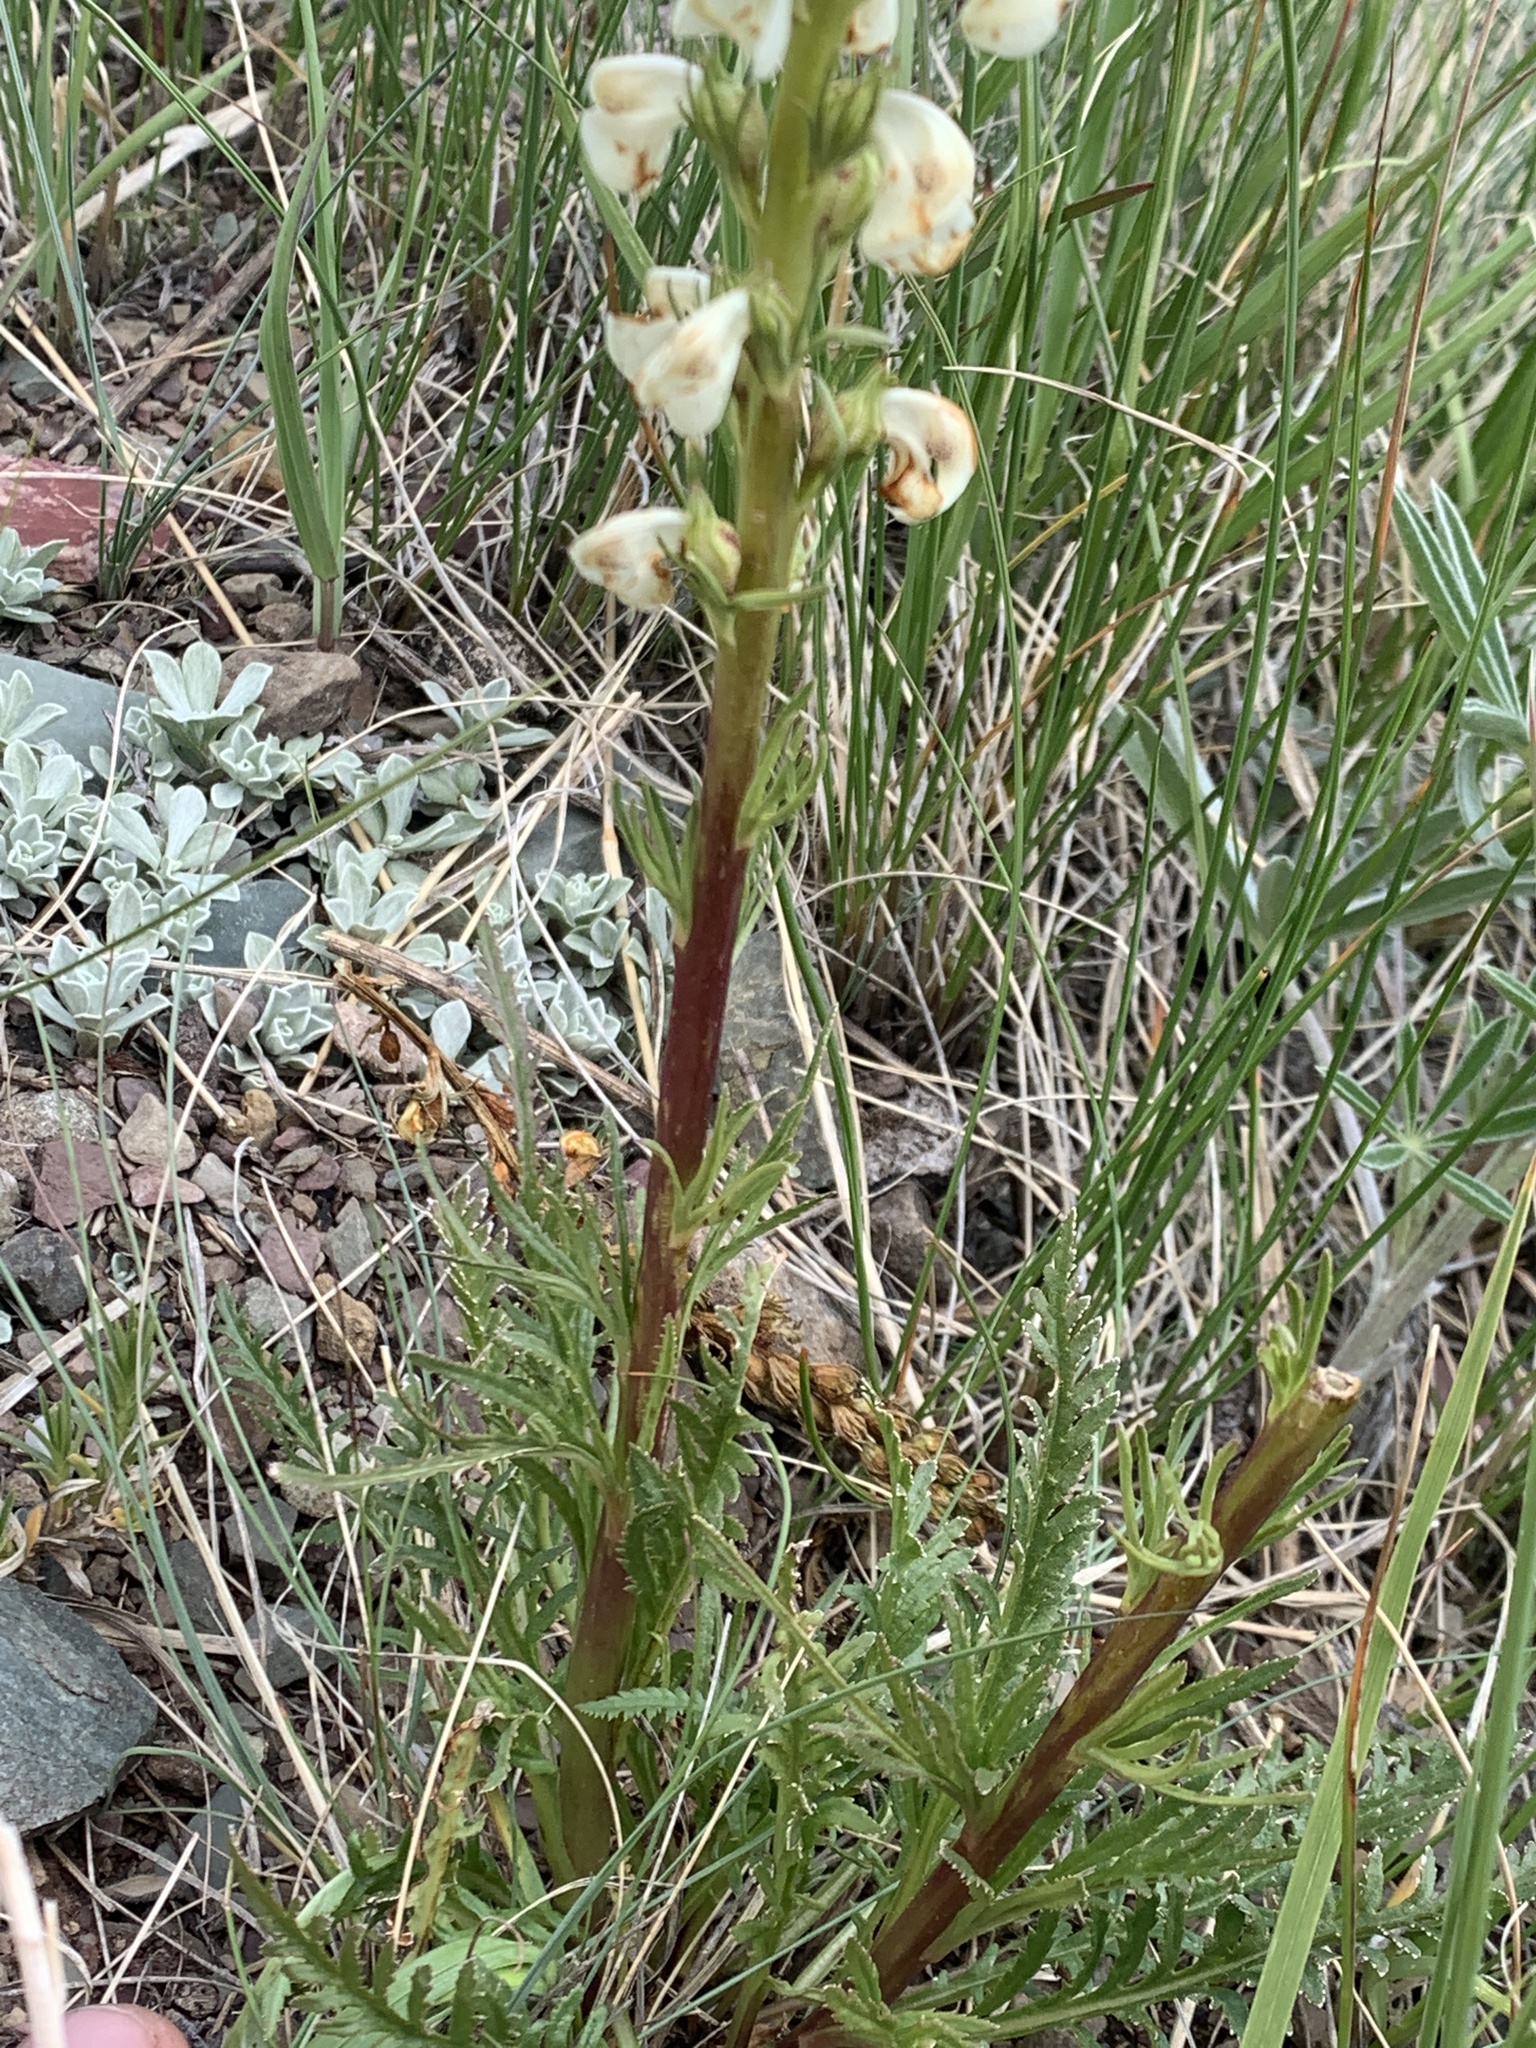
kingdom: Plantae
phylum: Tracheophyta
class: Magnoliopsida
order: Lamiales
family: Orobanchaceae
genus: Pedicularis
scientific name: Pedicularis contorta
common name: Coiled lousewort
